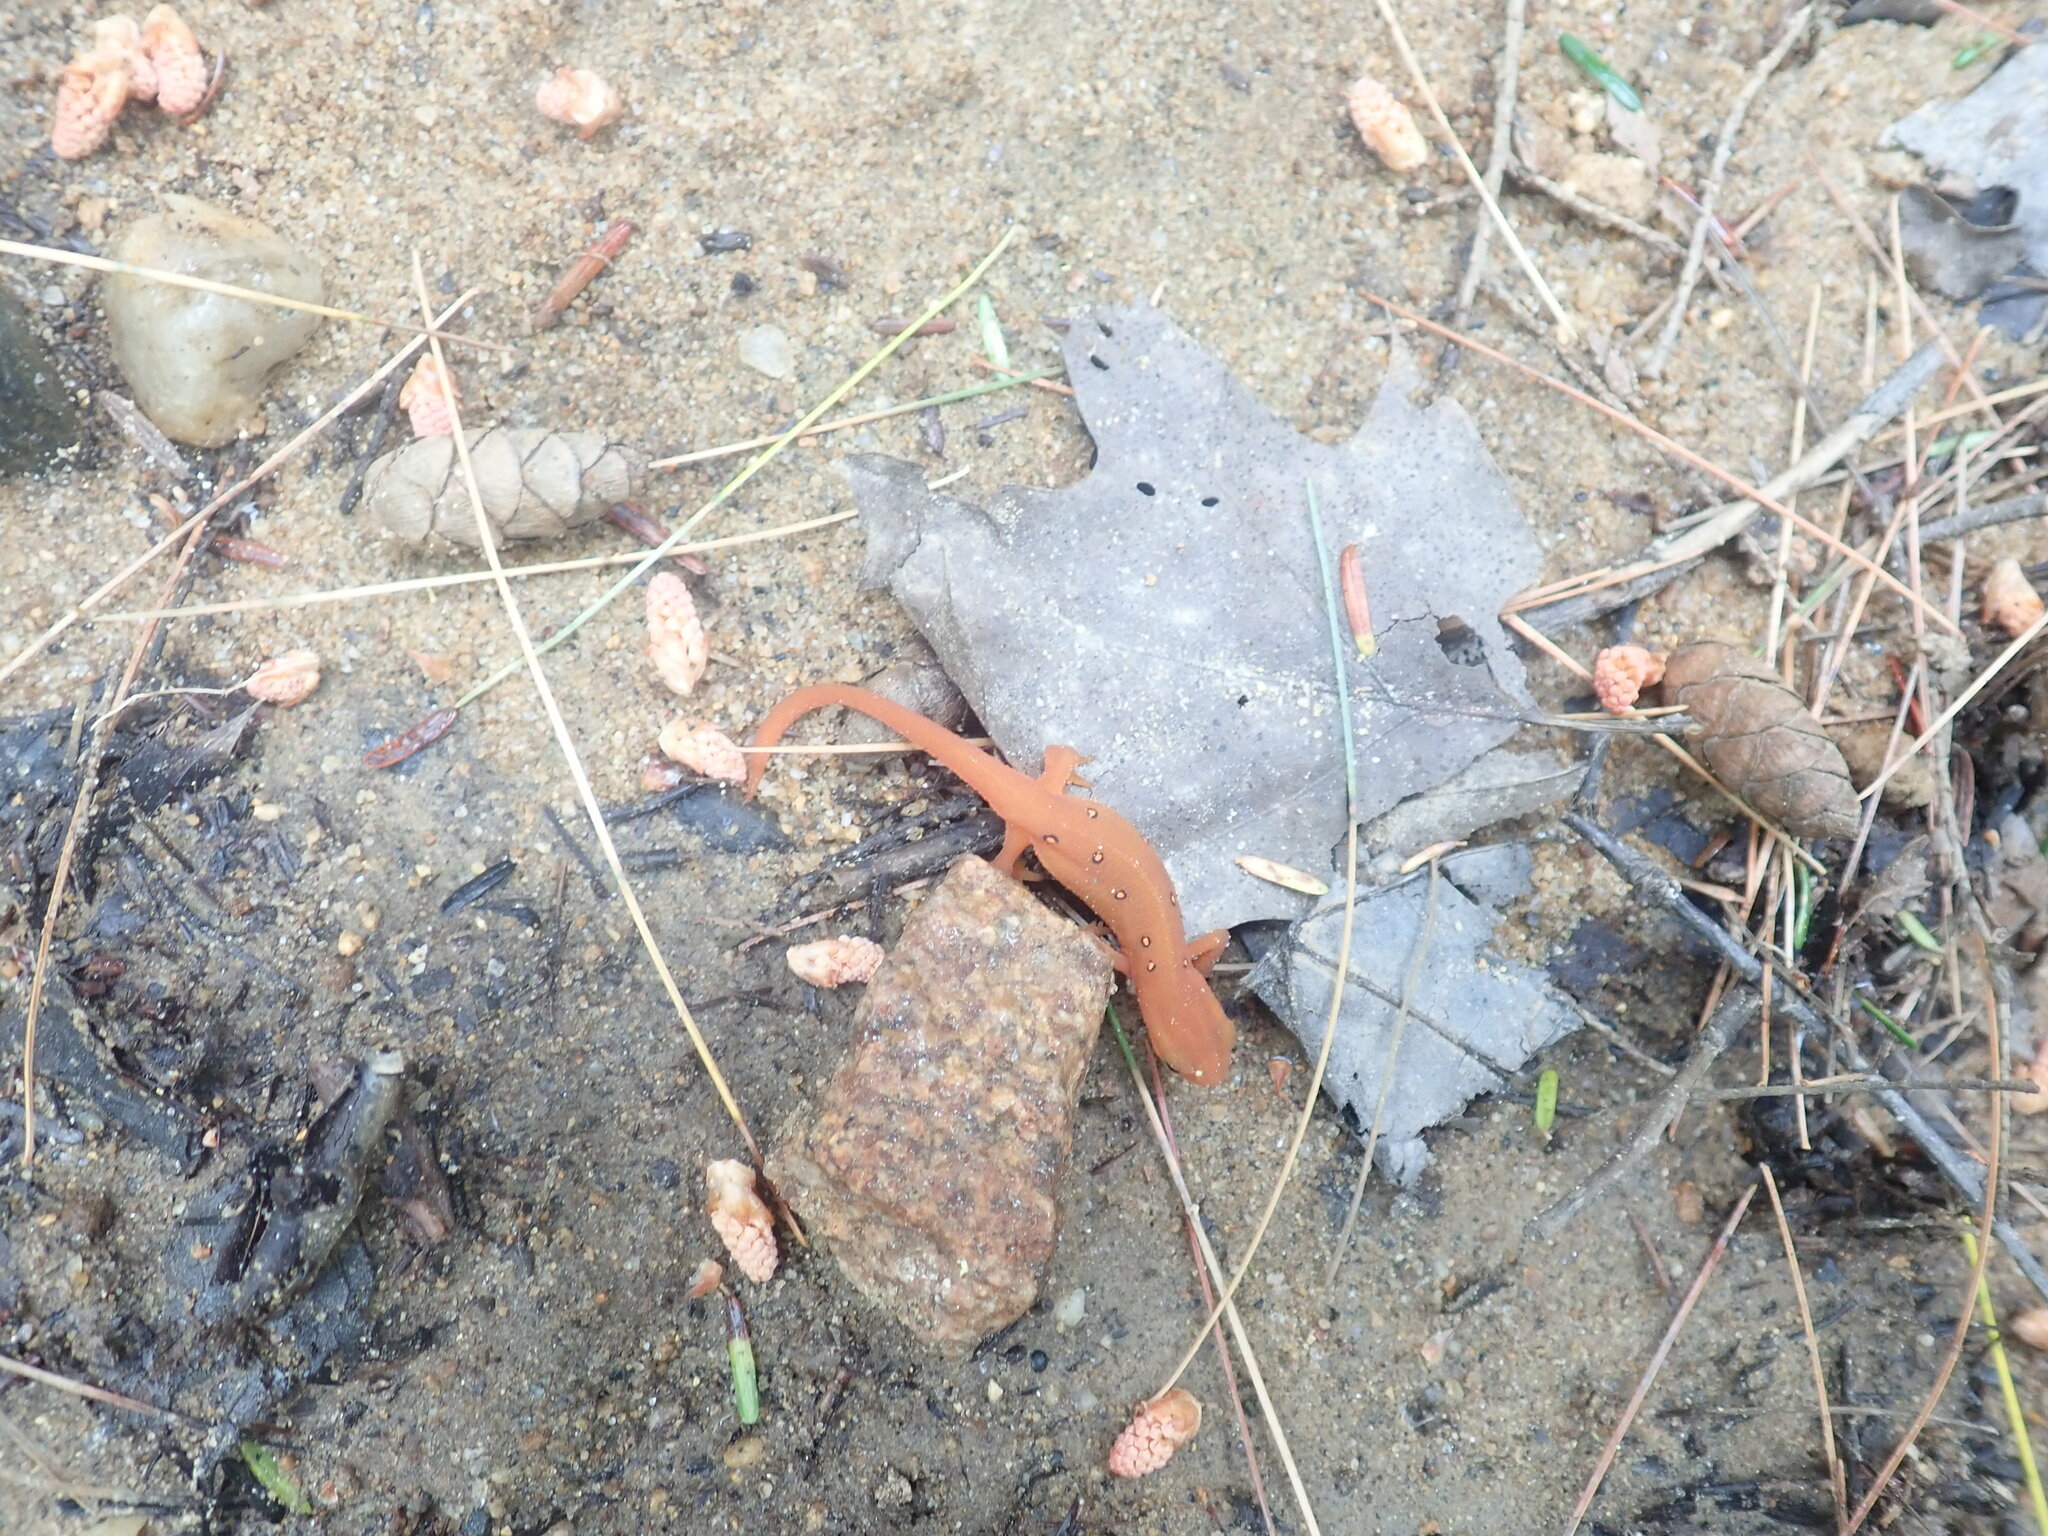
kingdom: Animalia
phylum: Chordata
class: Amphibia
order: Caudata
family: Salamandridae
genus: Notophthalmus
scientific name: Notophthalmus viridescens
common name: Eastern newt
